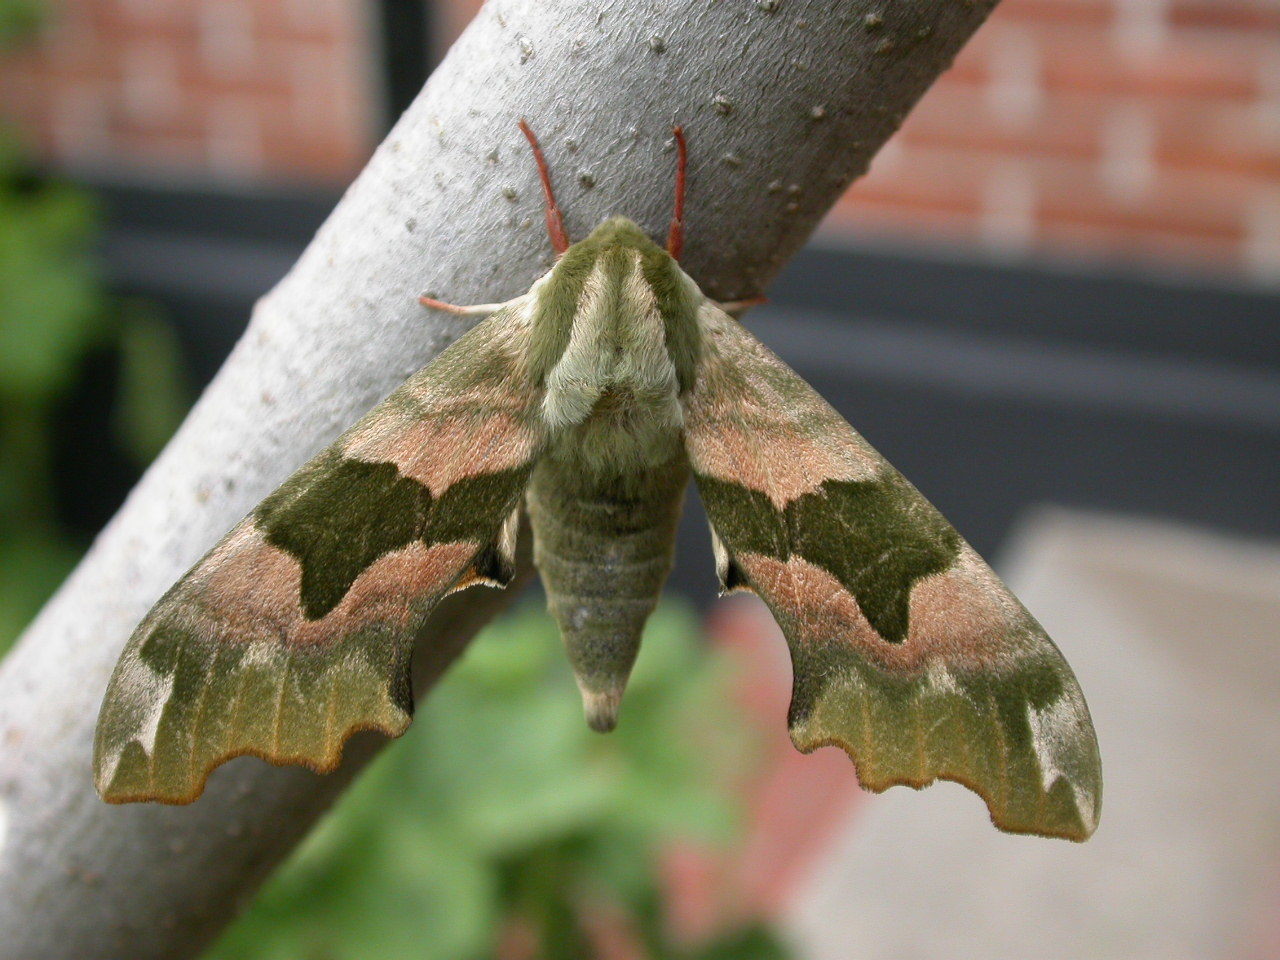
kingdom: Animalia
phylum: Arthropoda
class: Insecta
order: Lepidoptera
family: Sphingidae
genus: Mimas
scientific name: Mimas tiliae
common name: Lime hawk-moth
